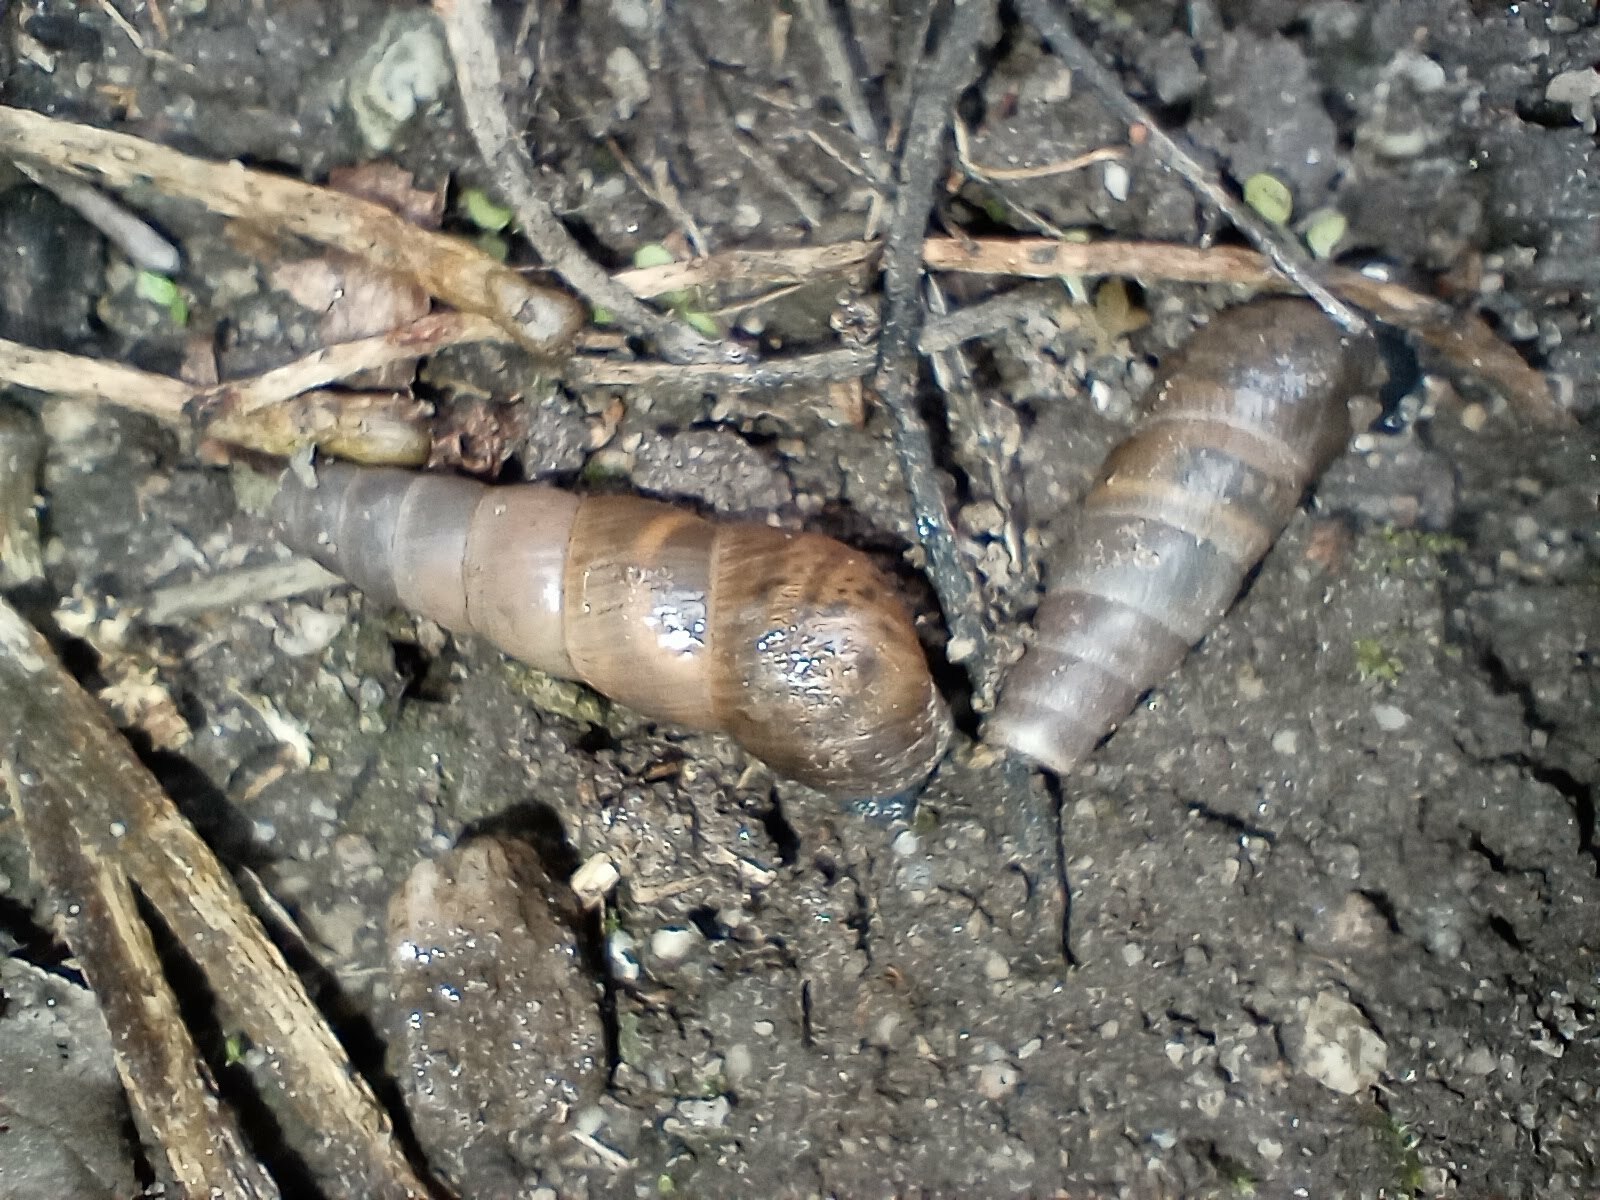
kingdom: Animalia
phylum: Mollusca
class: Gastropoda
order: Stylommatophora
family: Achatinidae
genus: Rumina
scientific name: Rumina decollata
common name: Decollate snail
